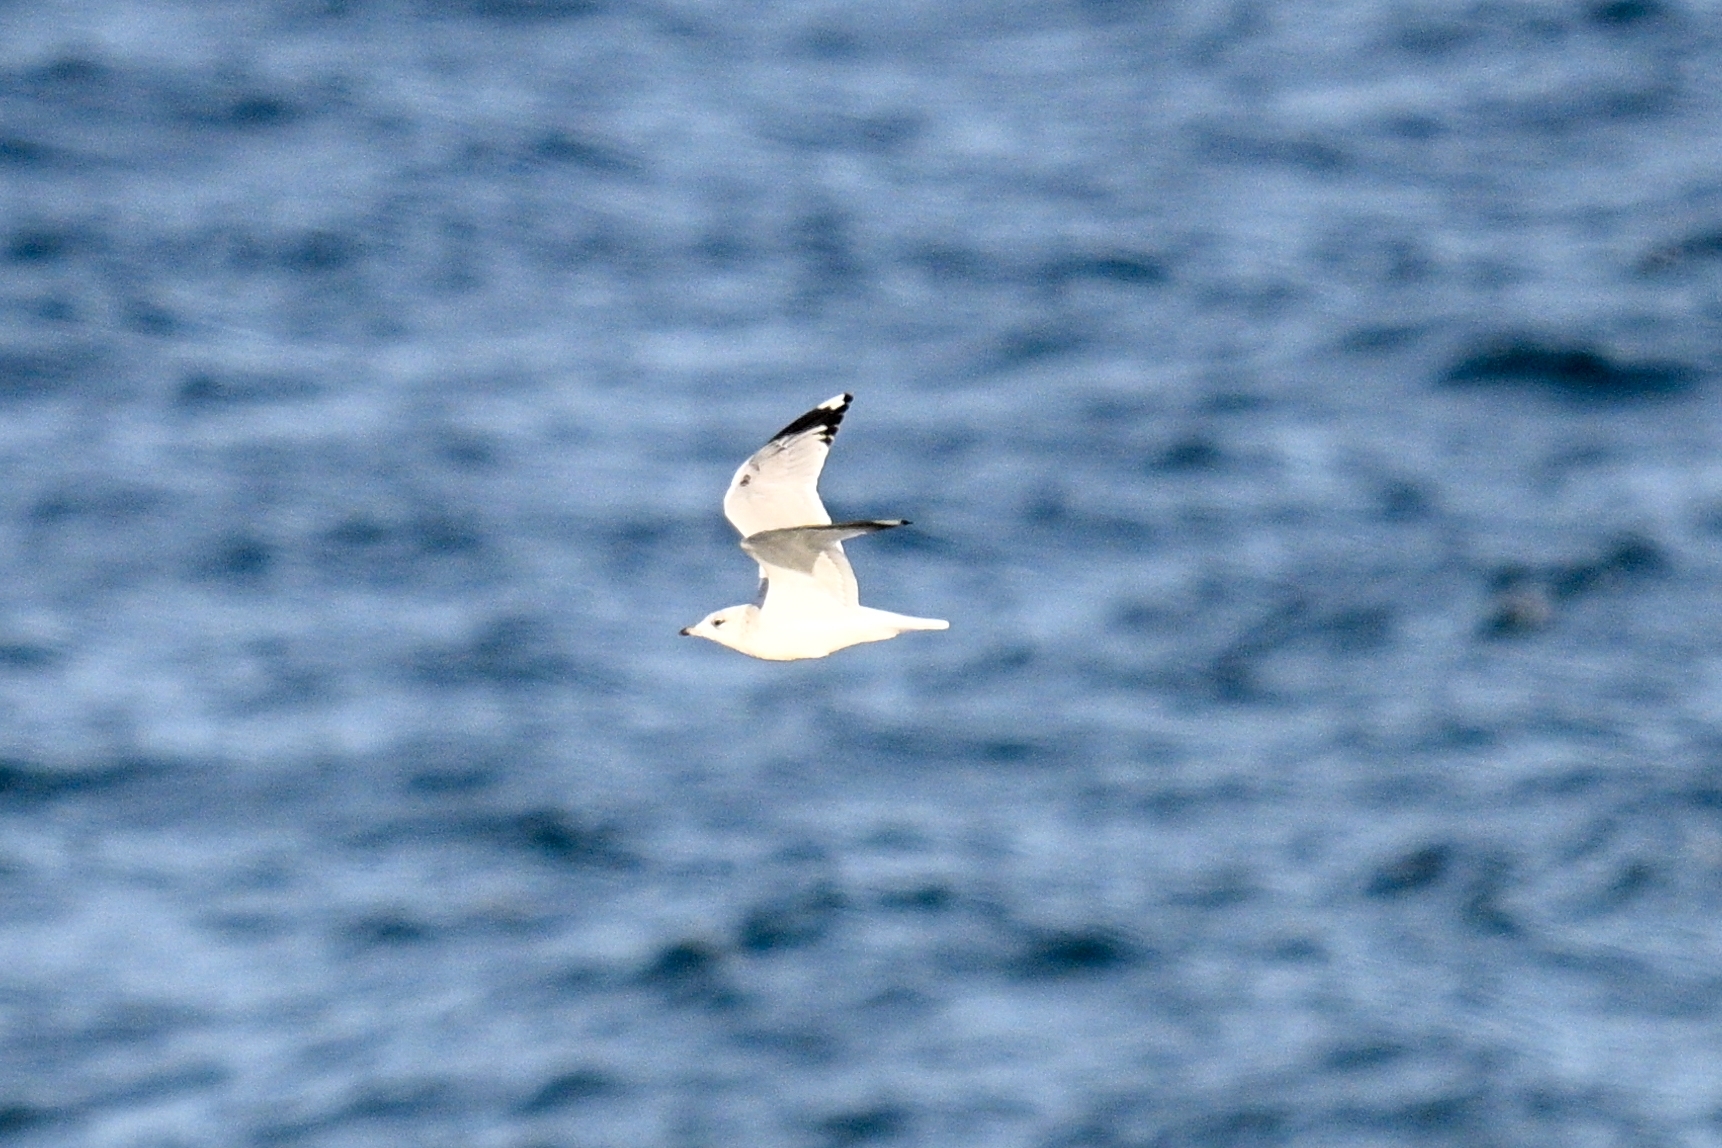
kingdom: Animalia
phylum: Chordata
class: Aves
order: Charadriiformes
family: Laridae
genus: Larus
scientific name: Larus canus
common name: Mew gull
